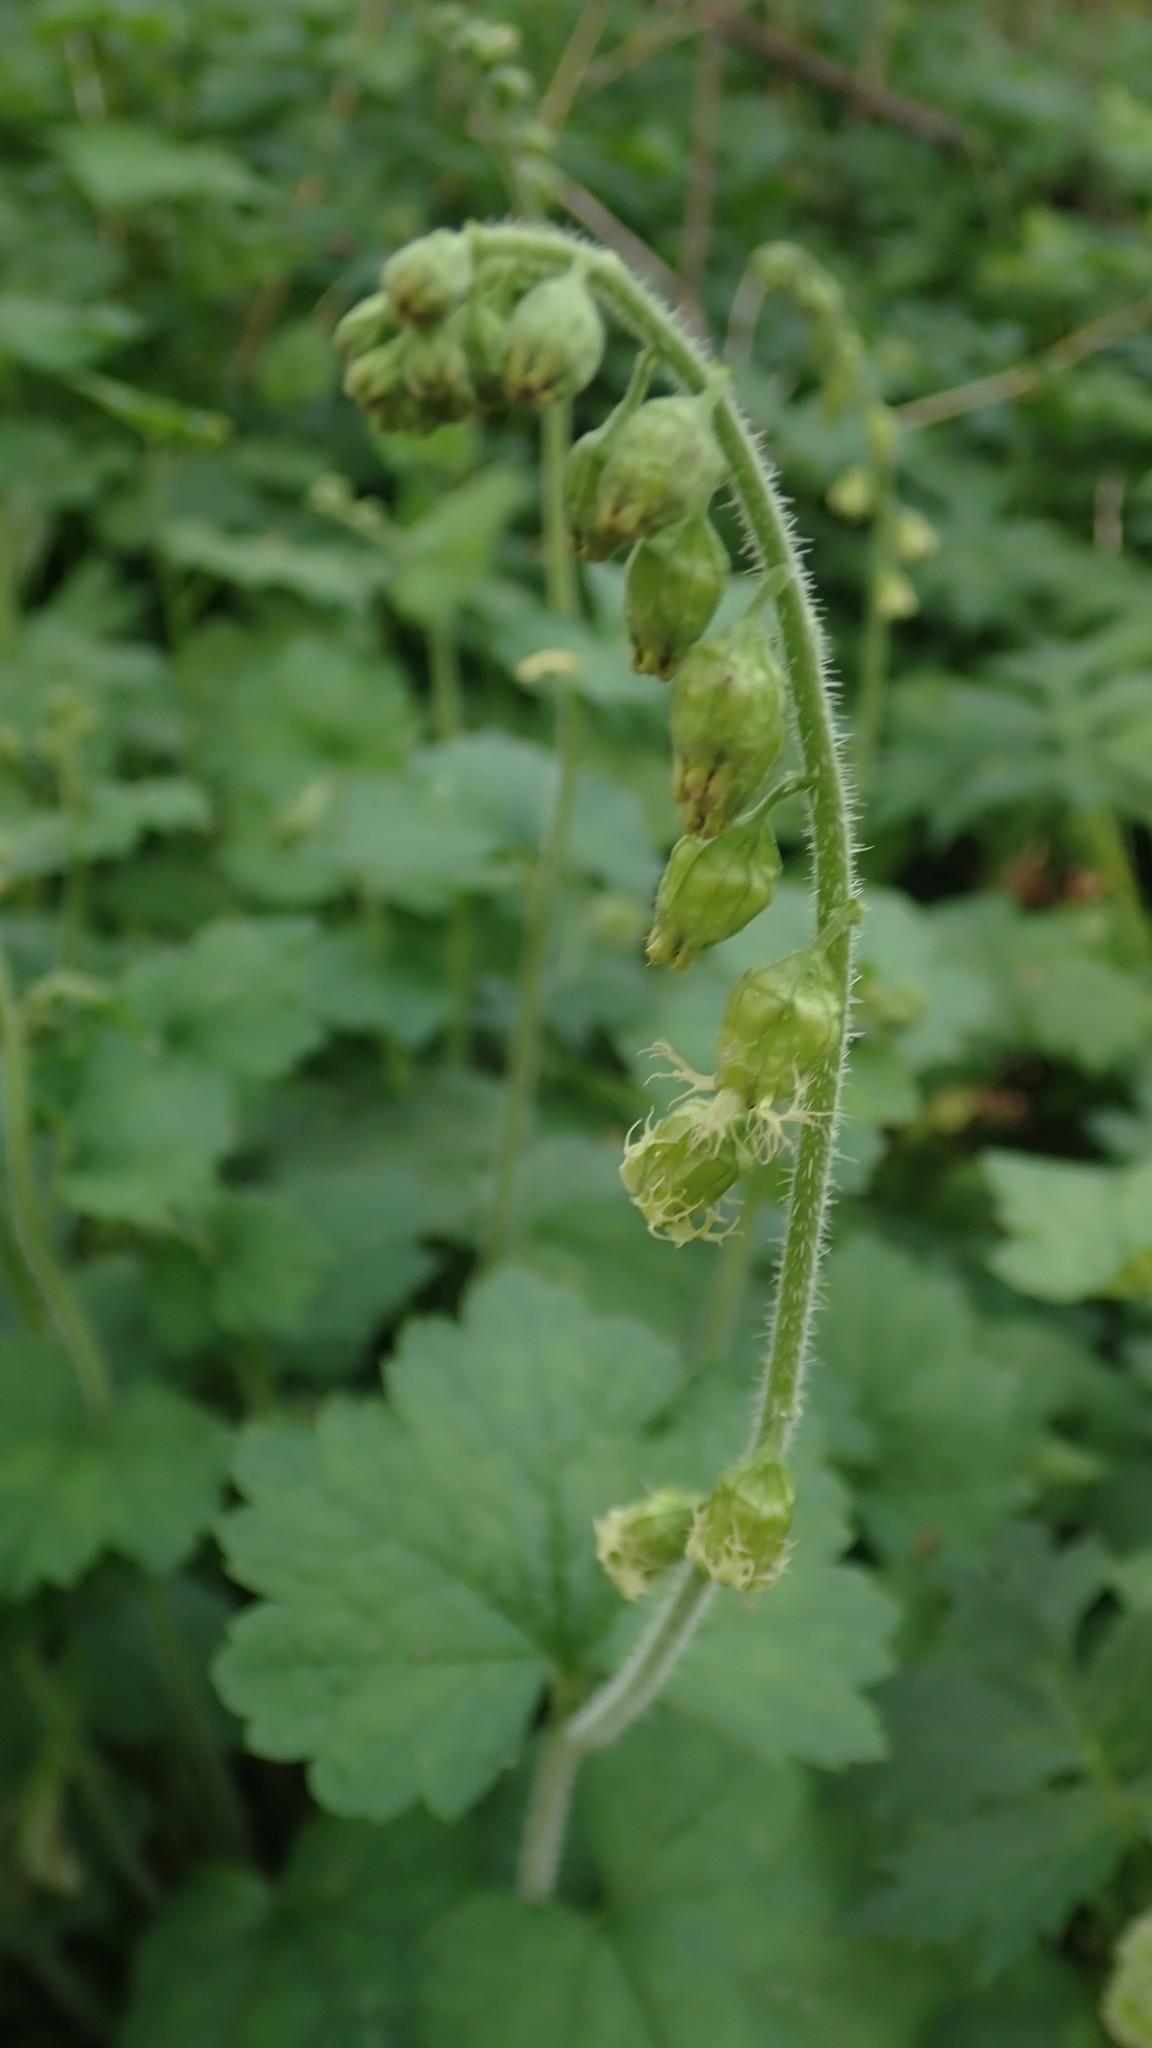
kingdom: Plantae
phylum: Tracheophyta
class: Magnoliopsida
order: Saxifragales
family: Saxifragaceae
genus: Tellima
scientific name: Tellima grandiflora
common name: Fringecups
